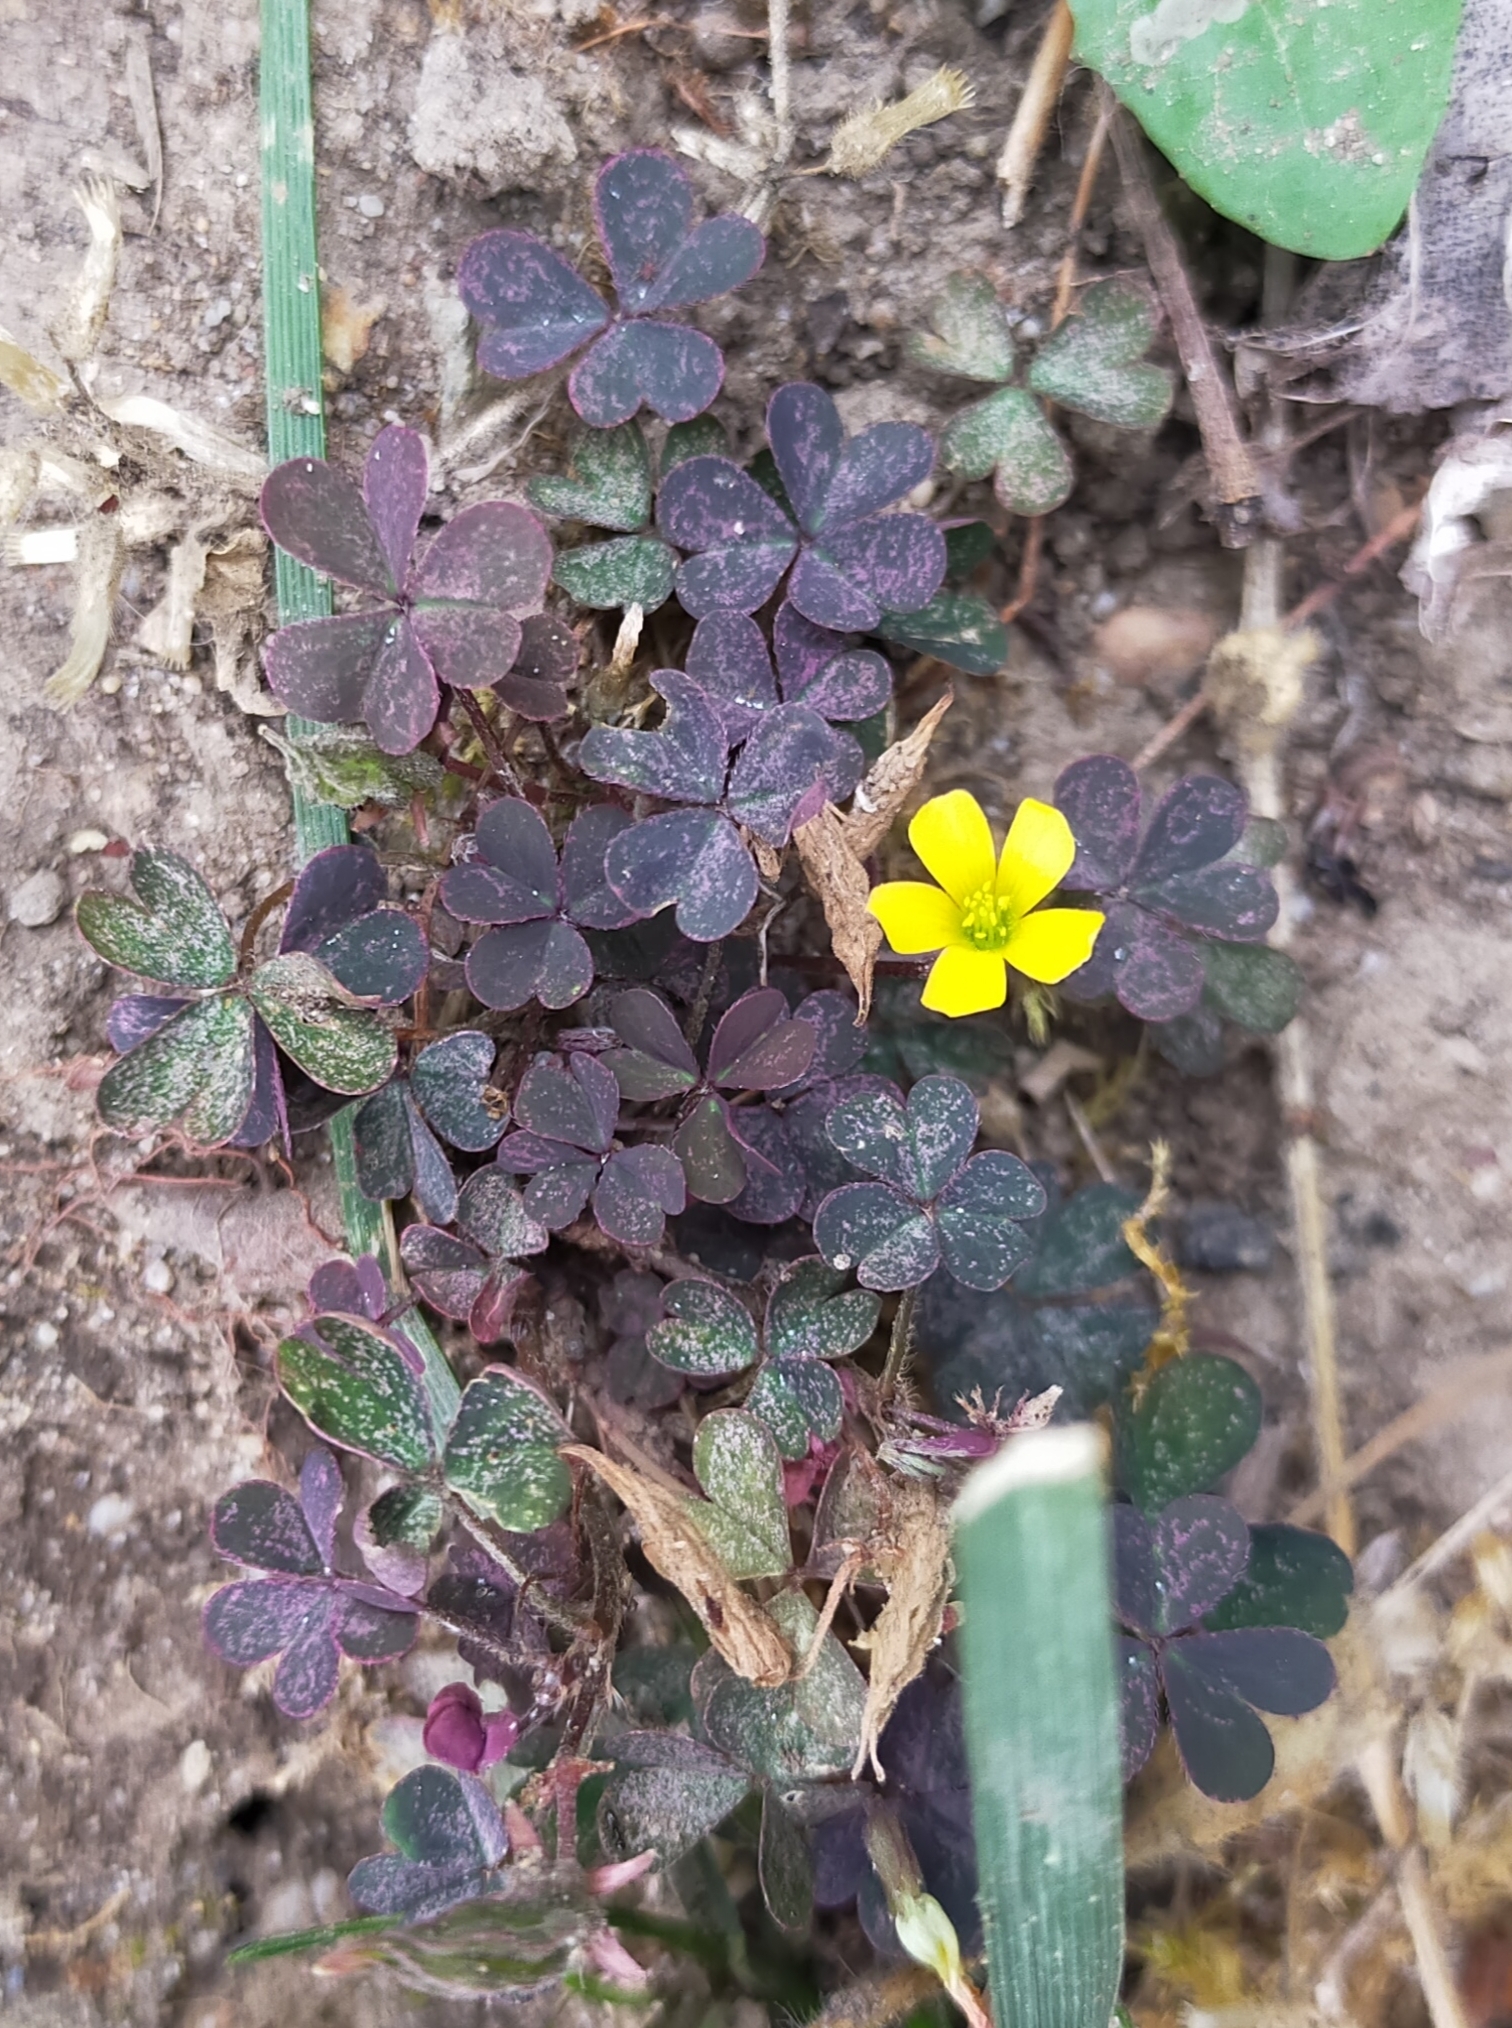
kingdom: Plantae
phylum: Tracheophyta
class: Magnoliopsida
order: Oxalidales
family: Oxalidaceae
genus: Oxalis
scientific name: Oxalis corniculata
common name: Procumbent yellow-sorrel
